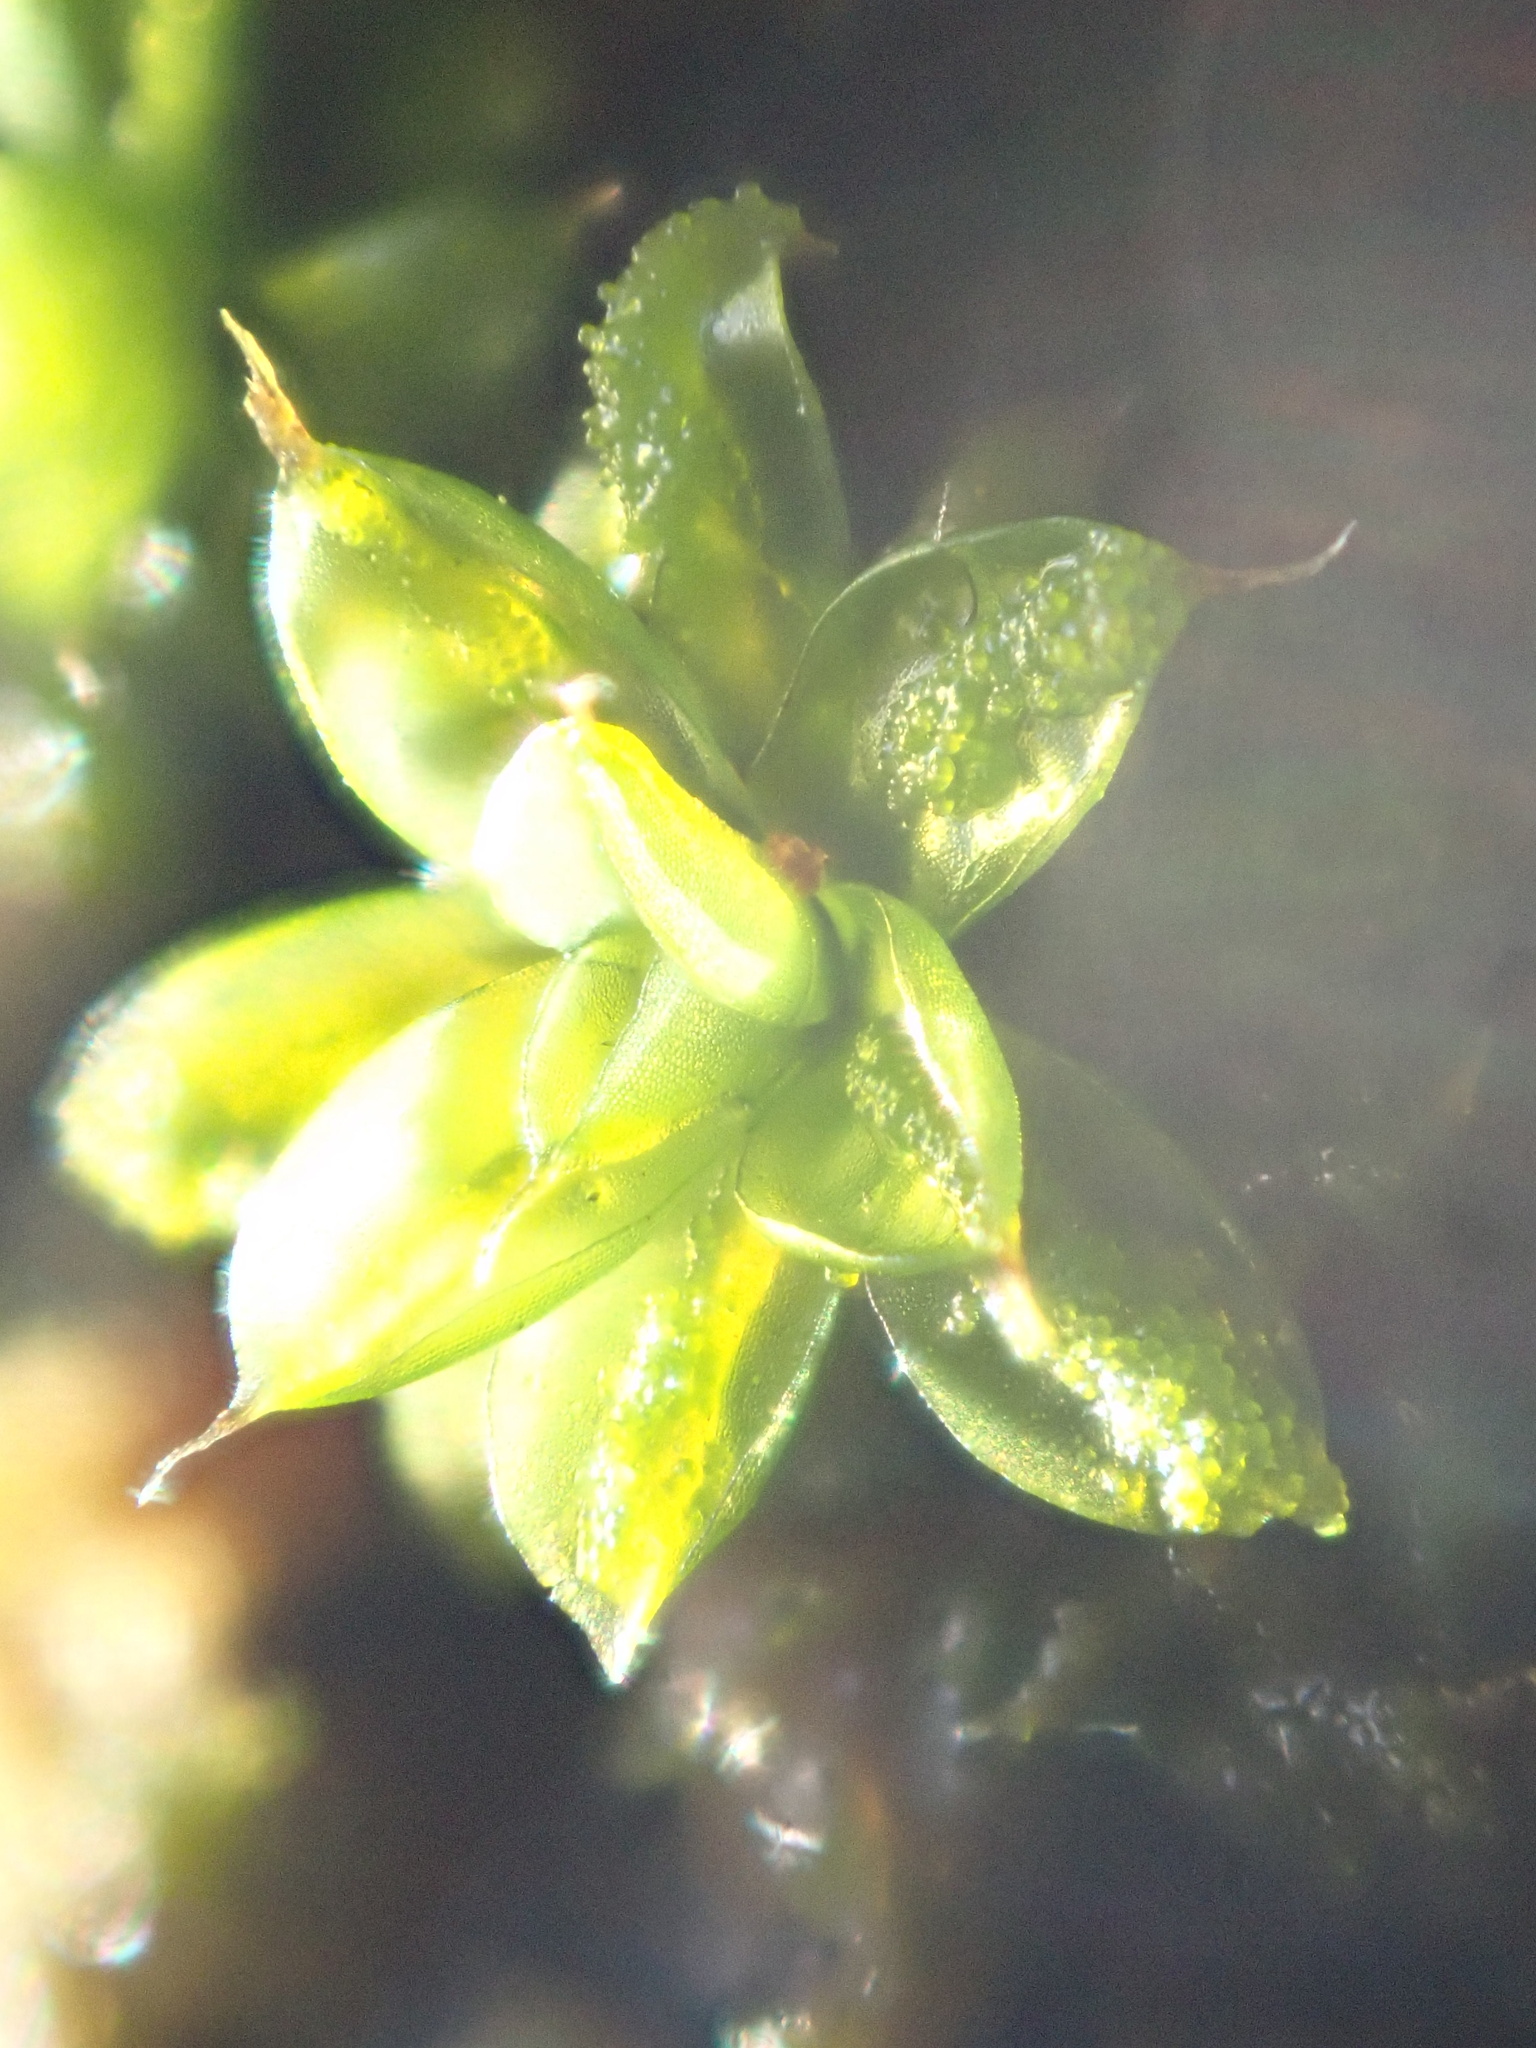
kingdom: Plantae
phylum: Bryophyta
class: Bryopsida
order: Pottiales
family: Pottiaceae
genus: Syntrichia
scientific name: Syntrichia papillosa
